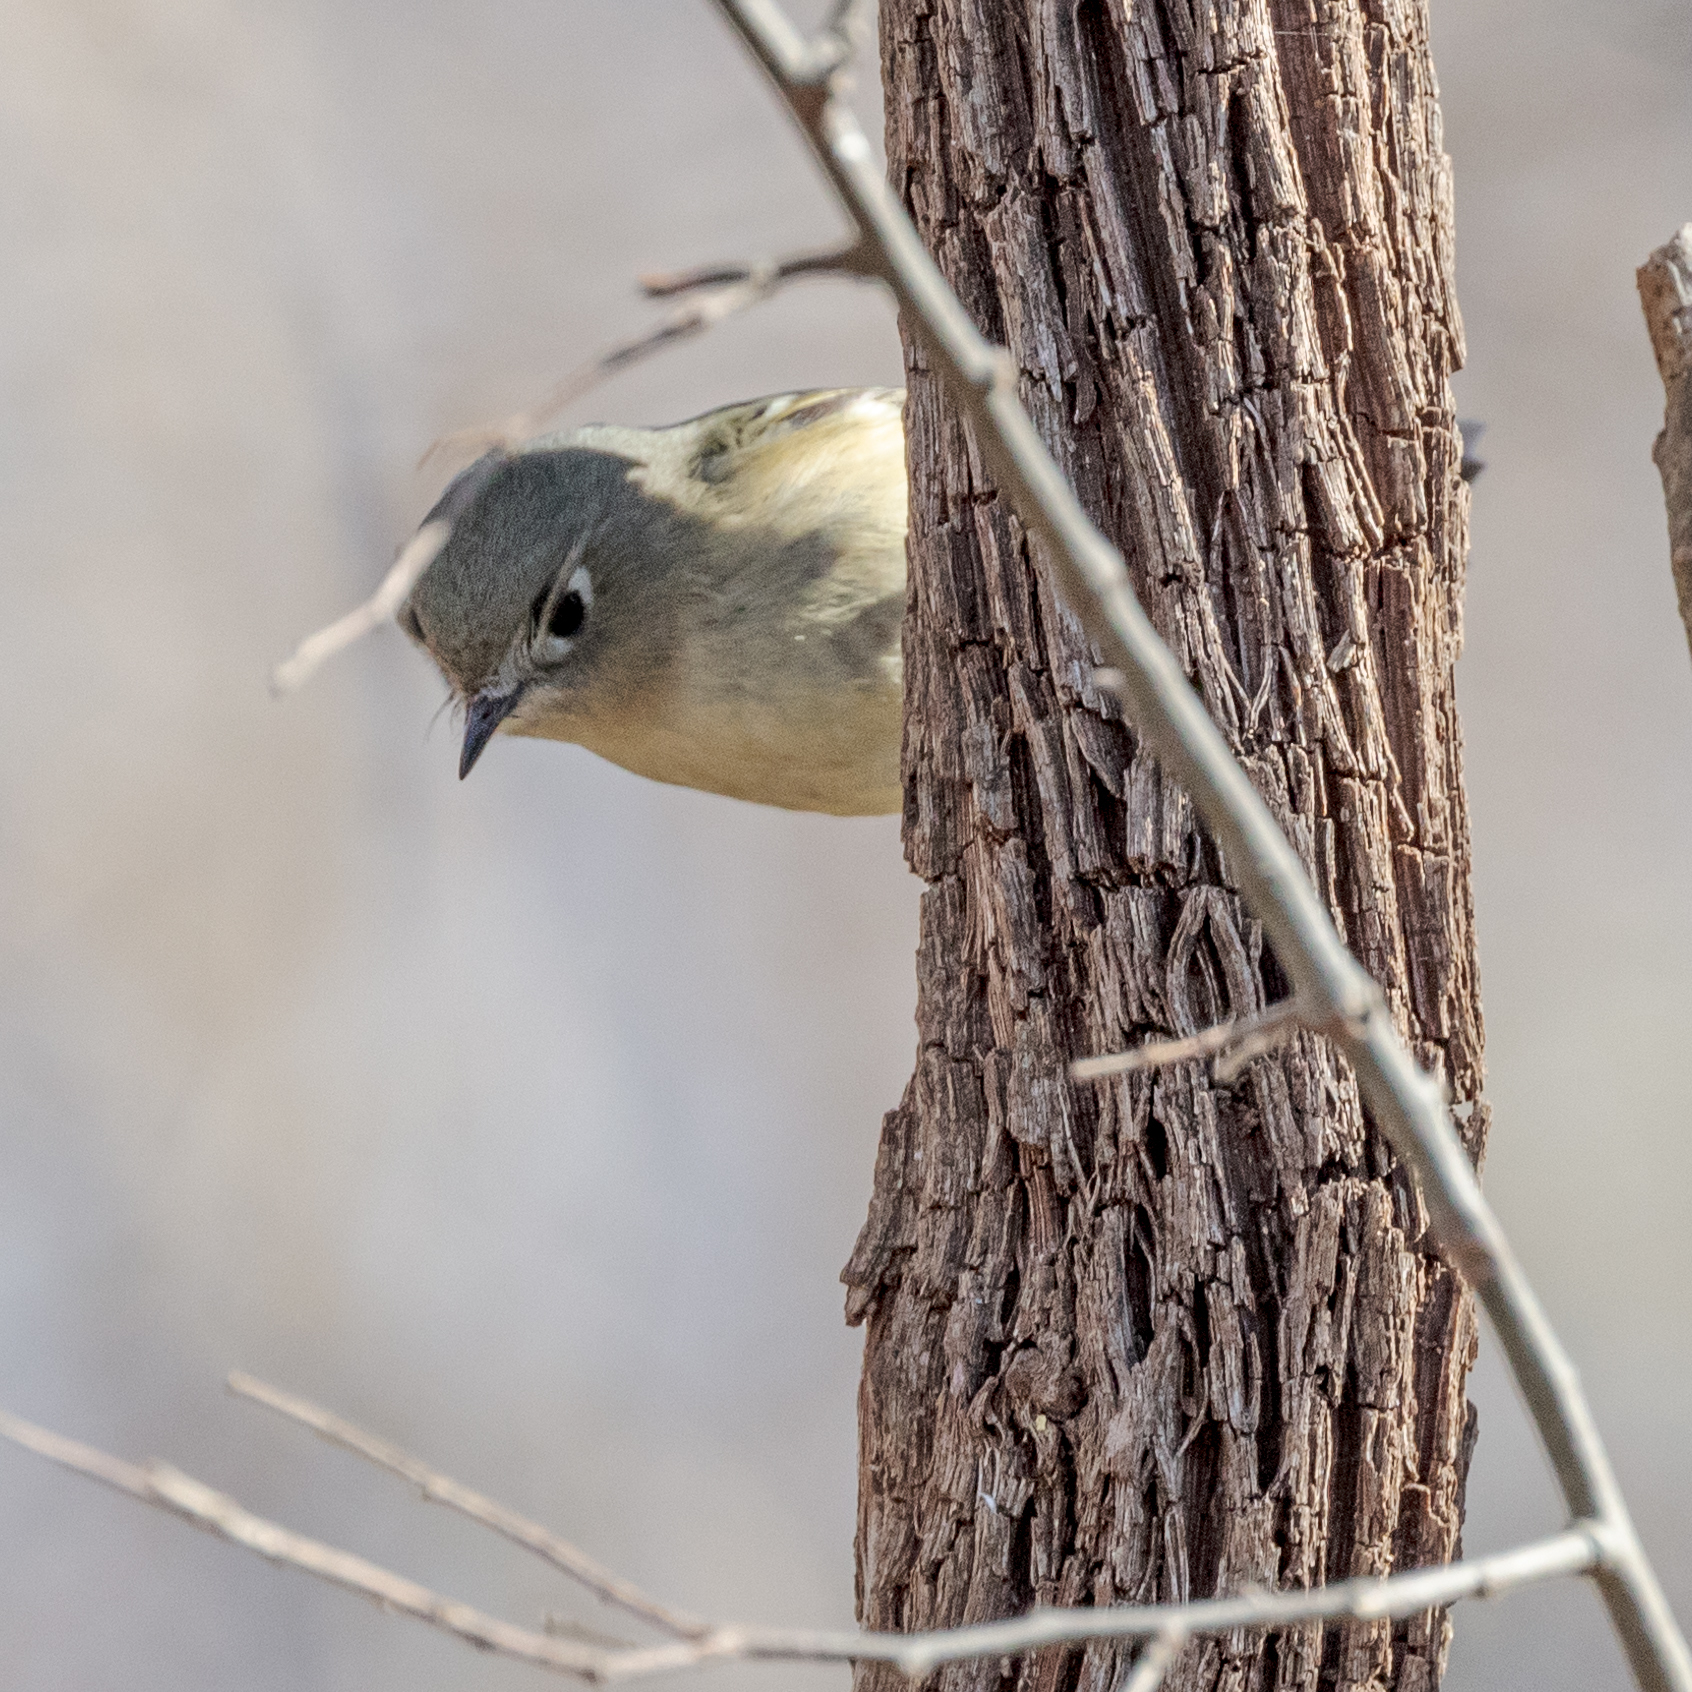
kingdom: Animalia
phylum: Chordata
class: Aves
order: Passeriformes
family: Regulidae
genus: Regulus
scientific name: Regulus calendula
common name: Ruby-crowned kinglet
